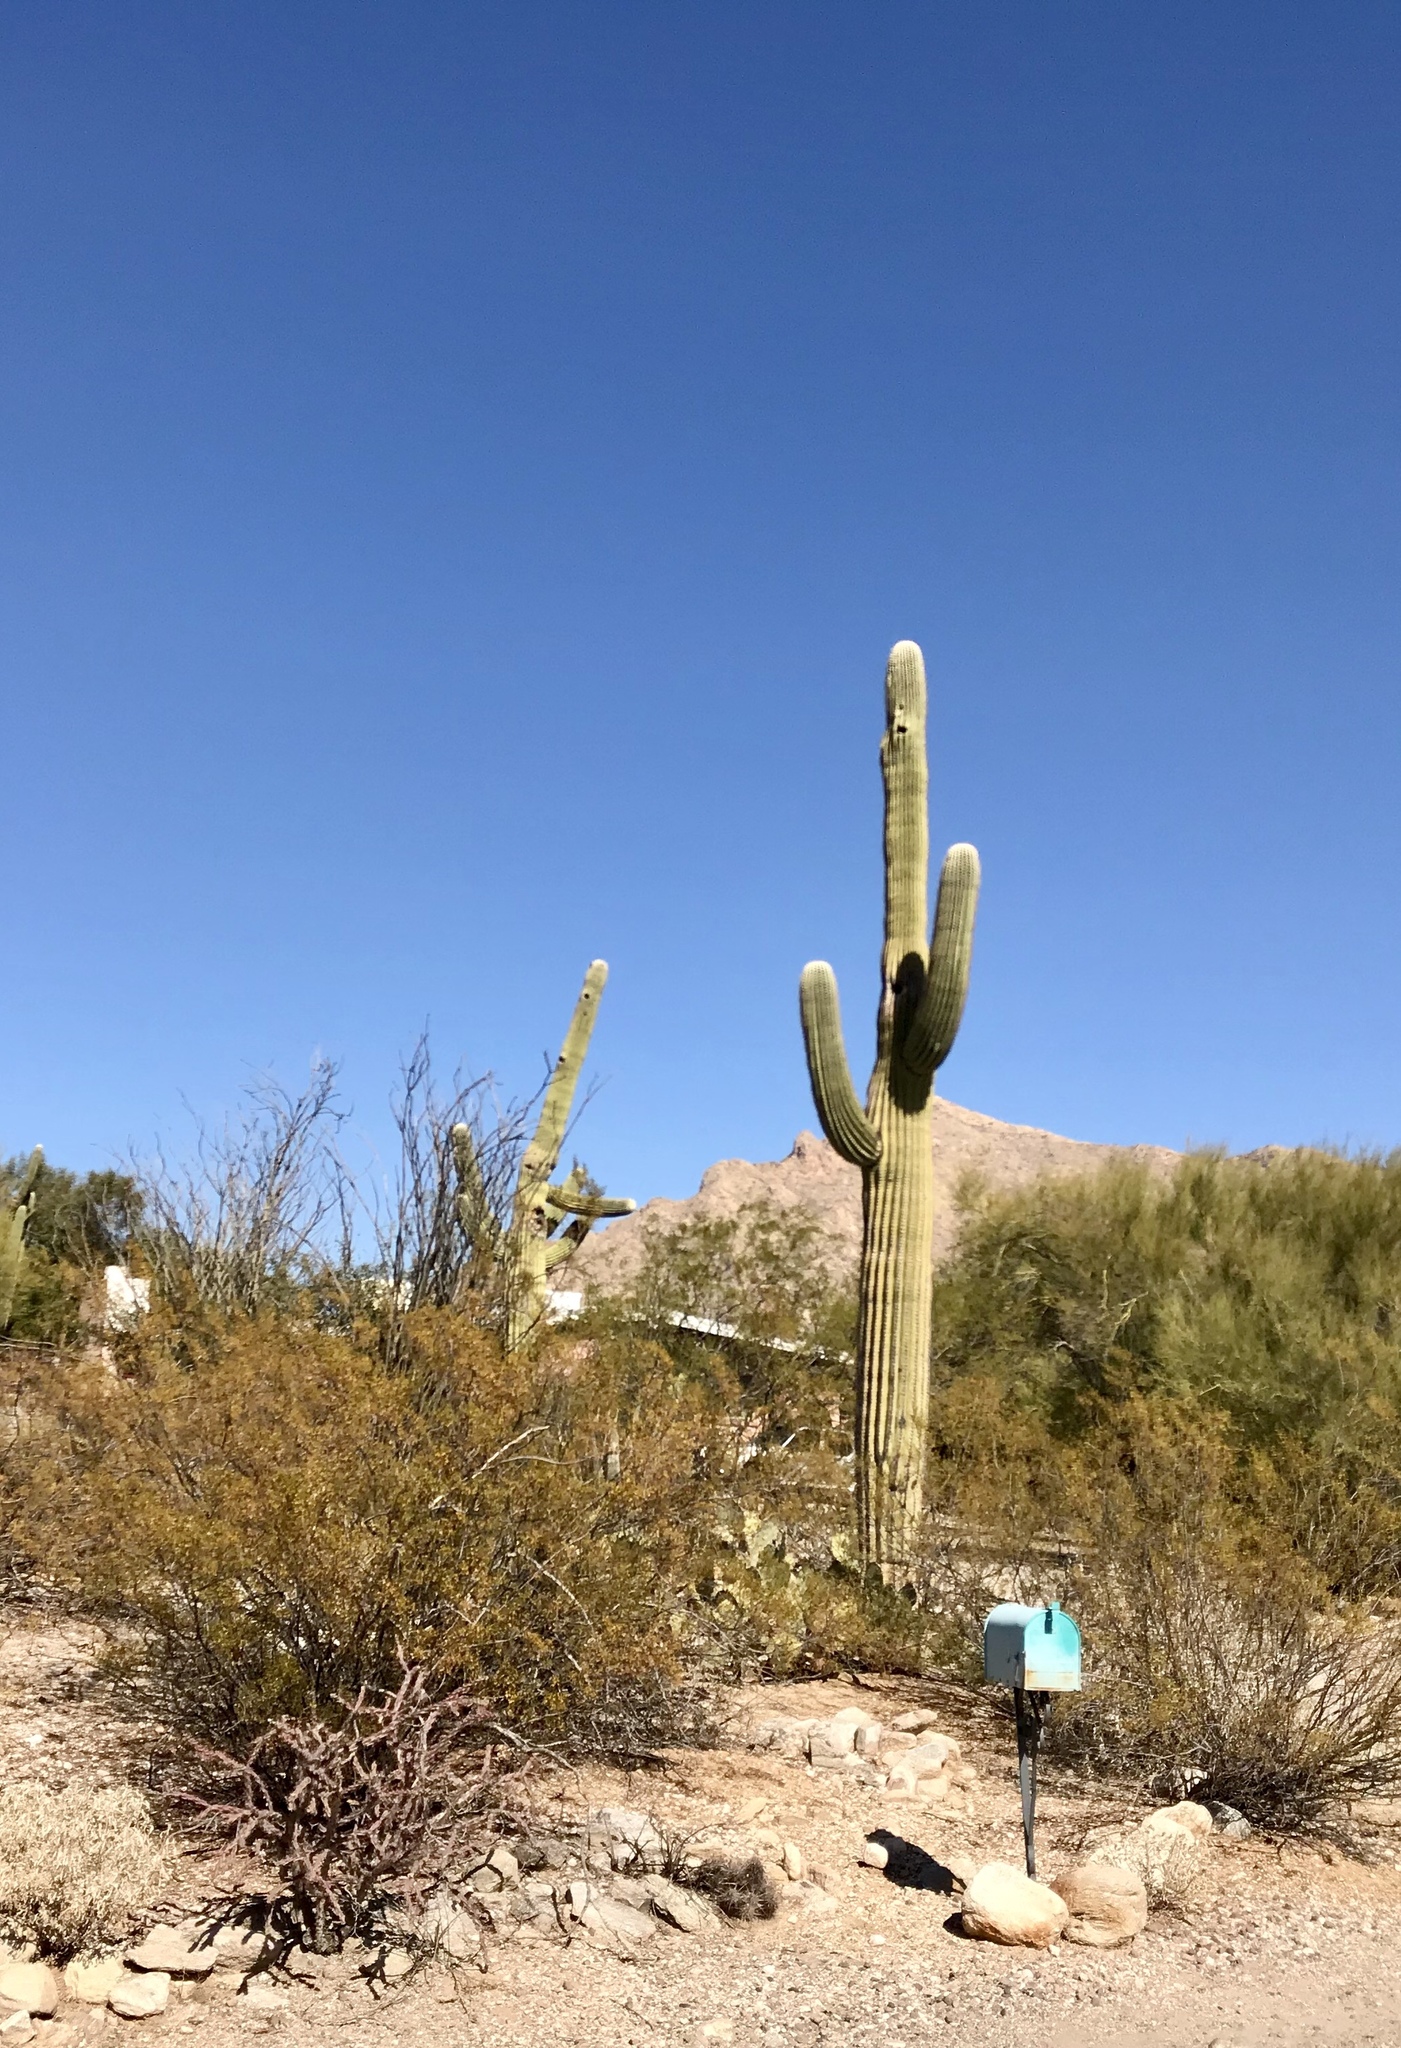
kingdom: Plantae
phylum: Tracheophyta
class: Magnoliopsida
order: Caryophyllales
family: Cactaceae
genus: Carnegiea
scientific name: Carnegiea gigantea
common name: Saguaro
